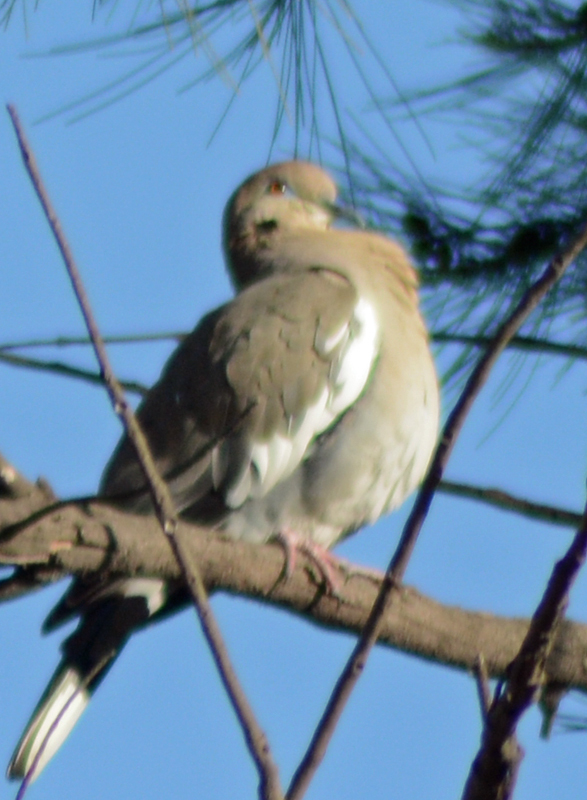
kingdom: Animalia
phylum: Chordata
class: Aves
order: Columbiformes
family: Columbidae
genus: Zenaida
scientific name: Zenaida asiatica
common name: White-winged dove
